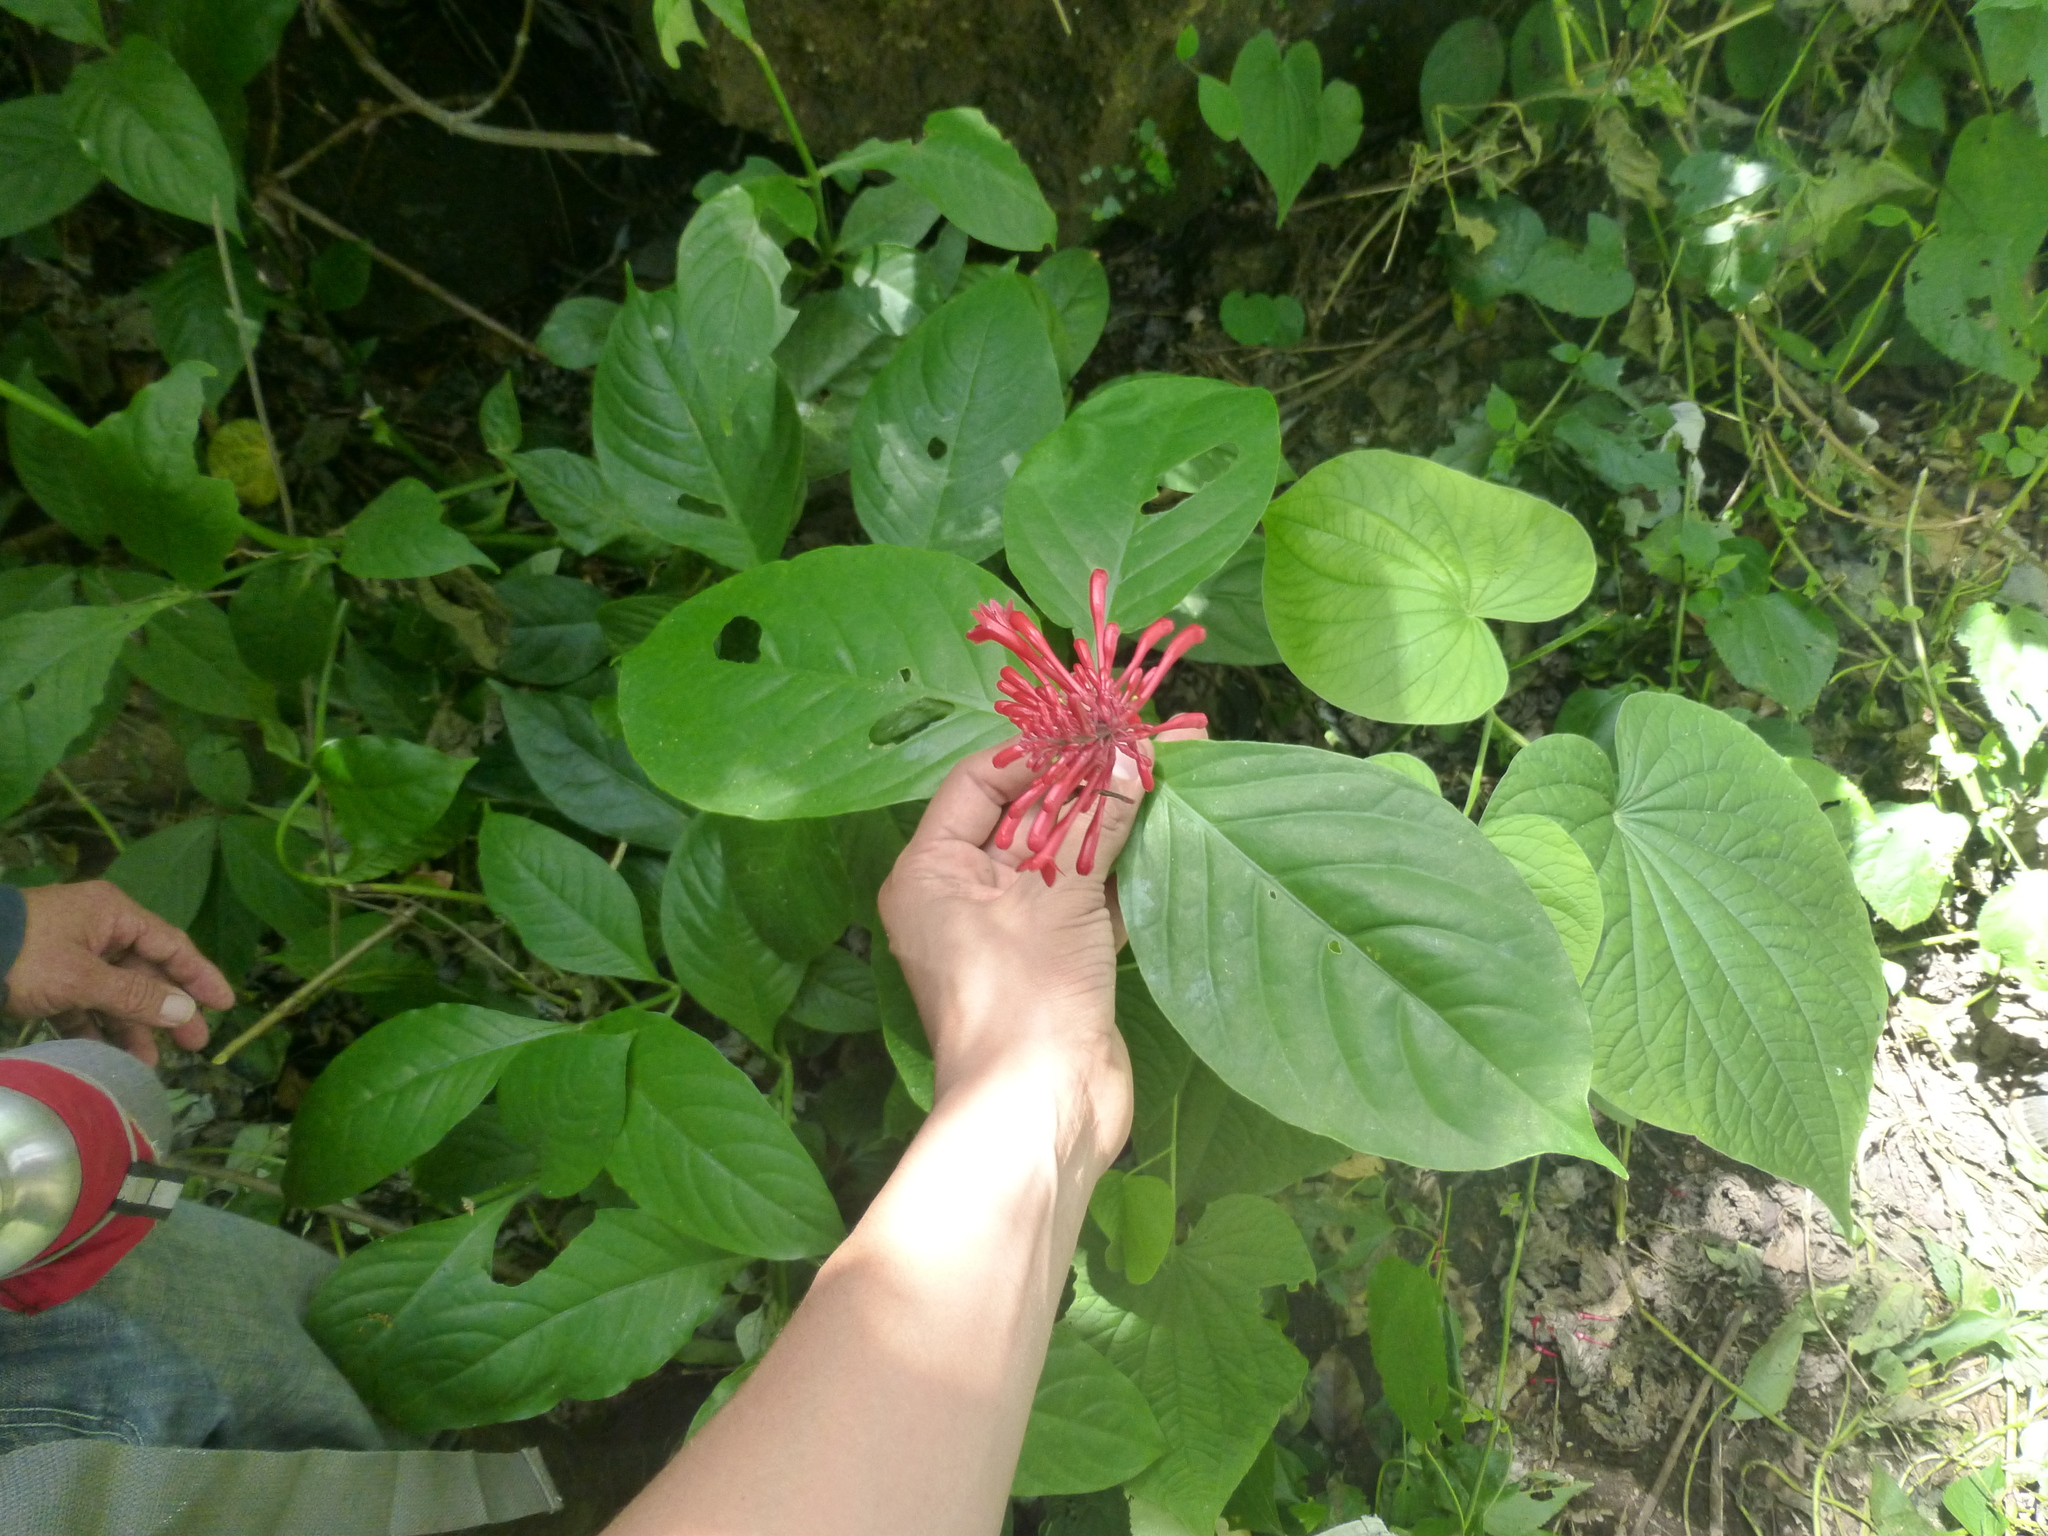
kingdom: Plantae
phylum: Tracheophyta
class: Magnoliopsida
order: Lamiales
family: Acanthaceae
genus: Odontonema
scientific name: Odontonema tubaeforme
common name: Firespike
